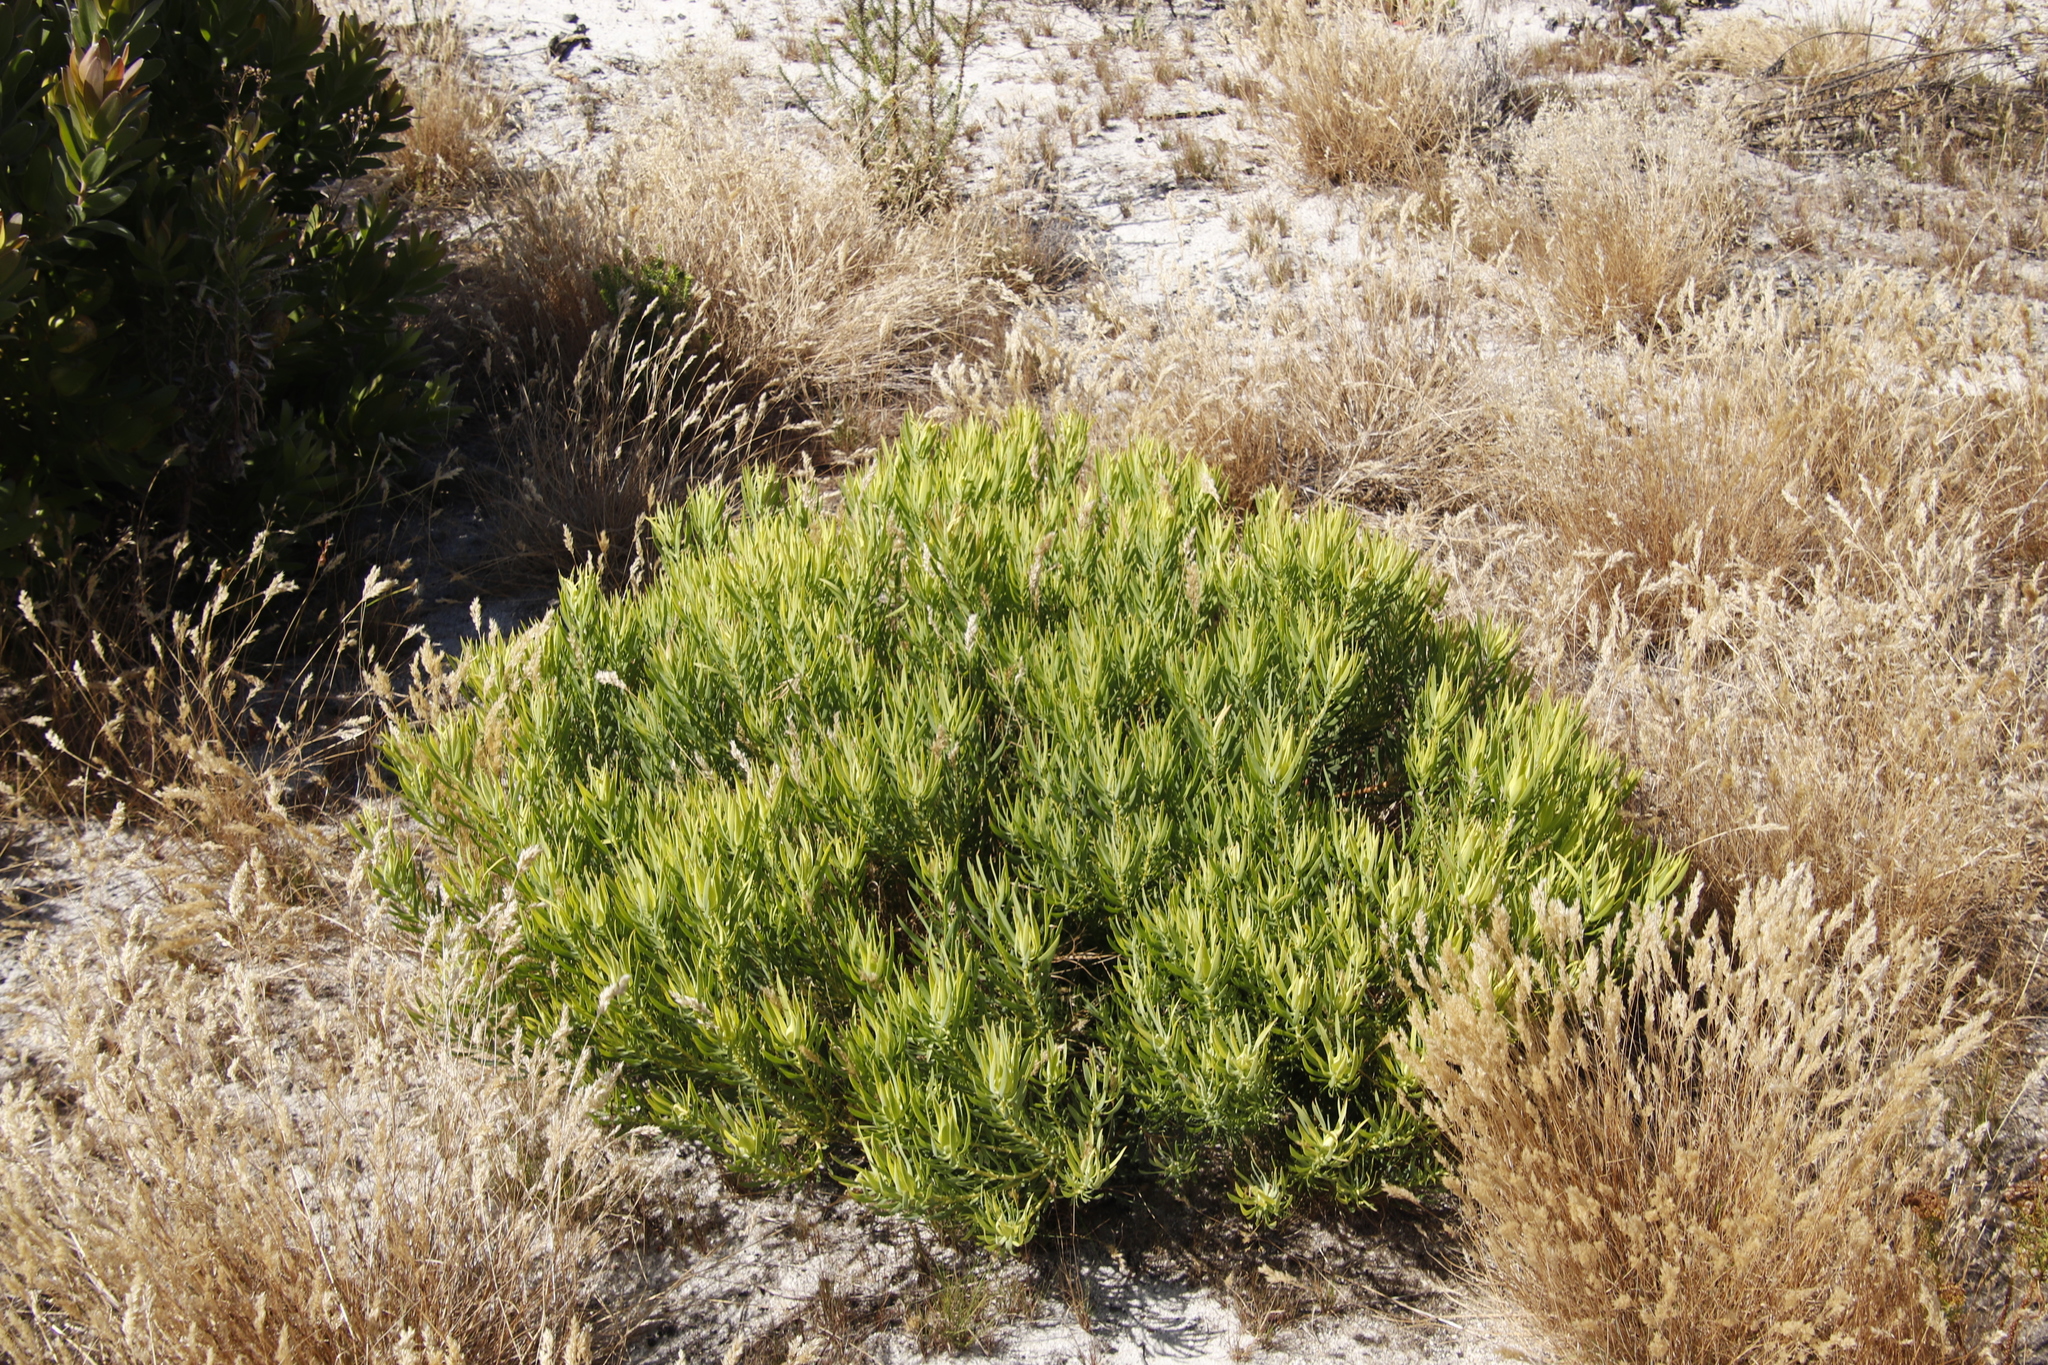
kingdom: Plantae
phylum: Tracheophyta
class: Magnoliopsida
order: Proteales
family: Proteaceae
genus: Leucadendron
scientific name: Leucadendron salignum
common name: Common sunshine conebush
